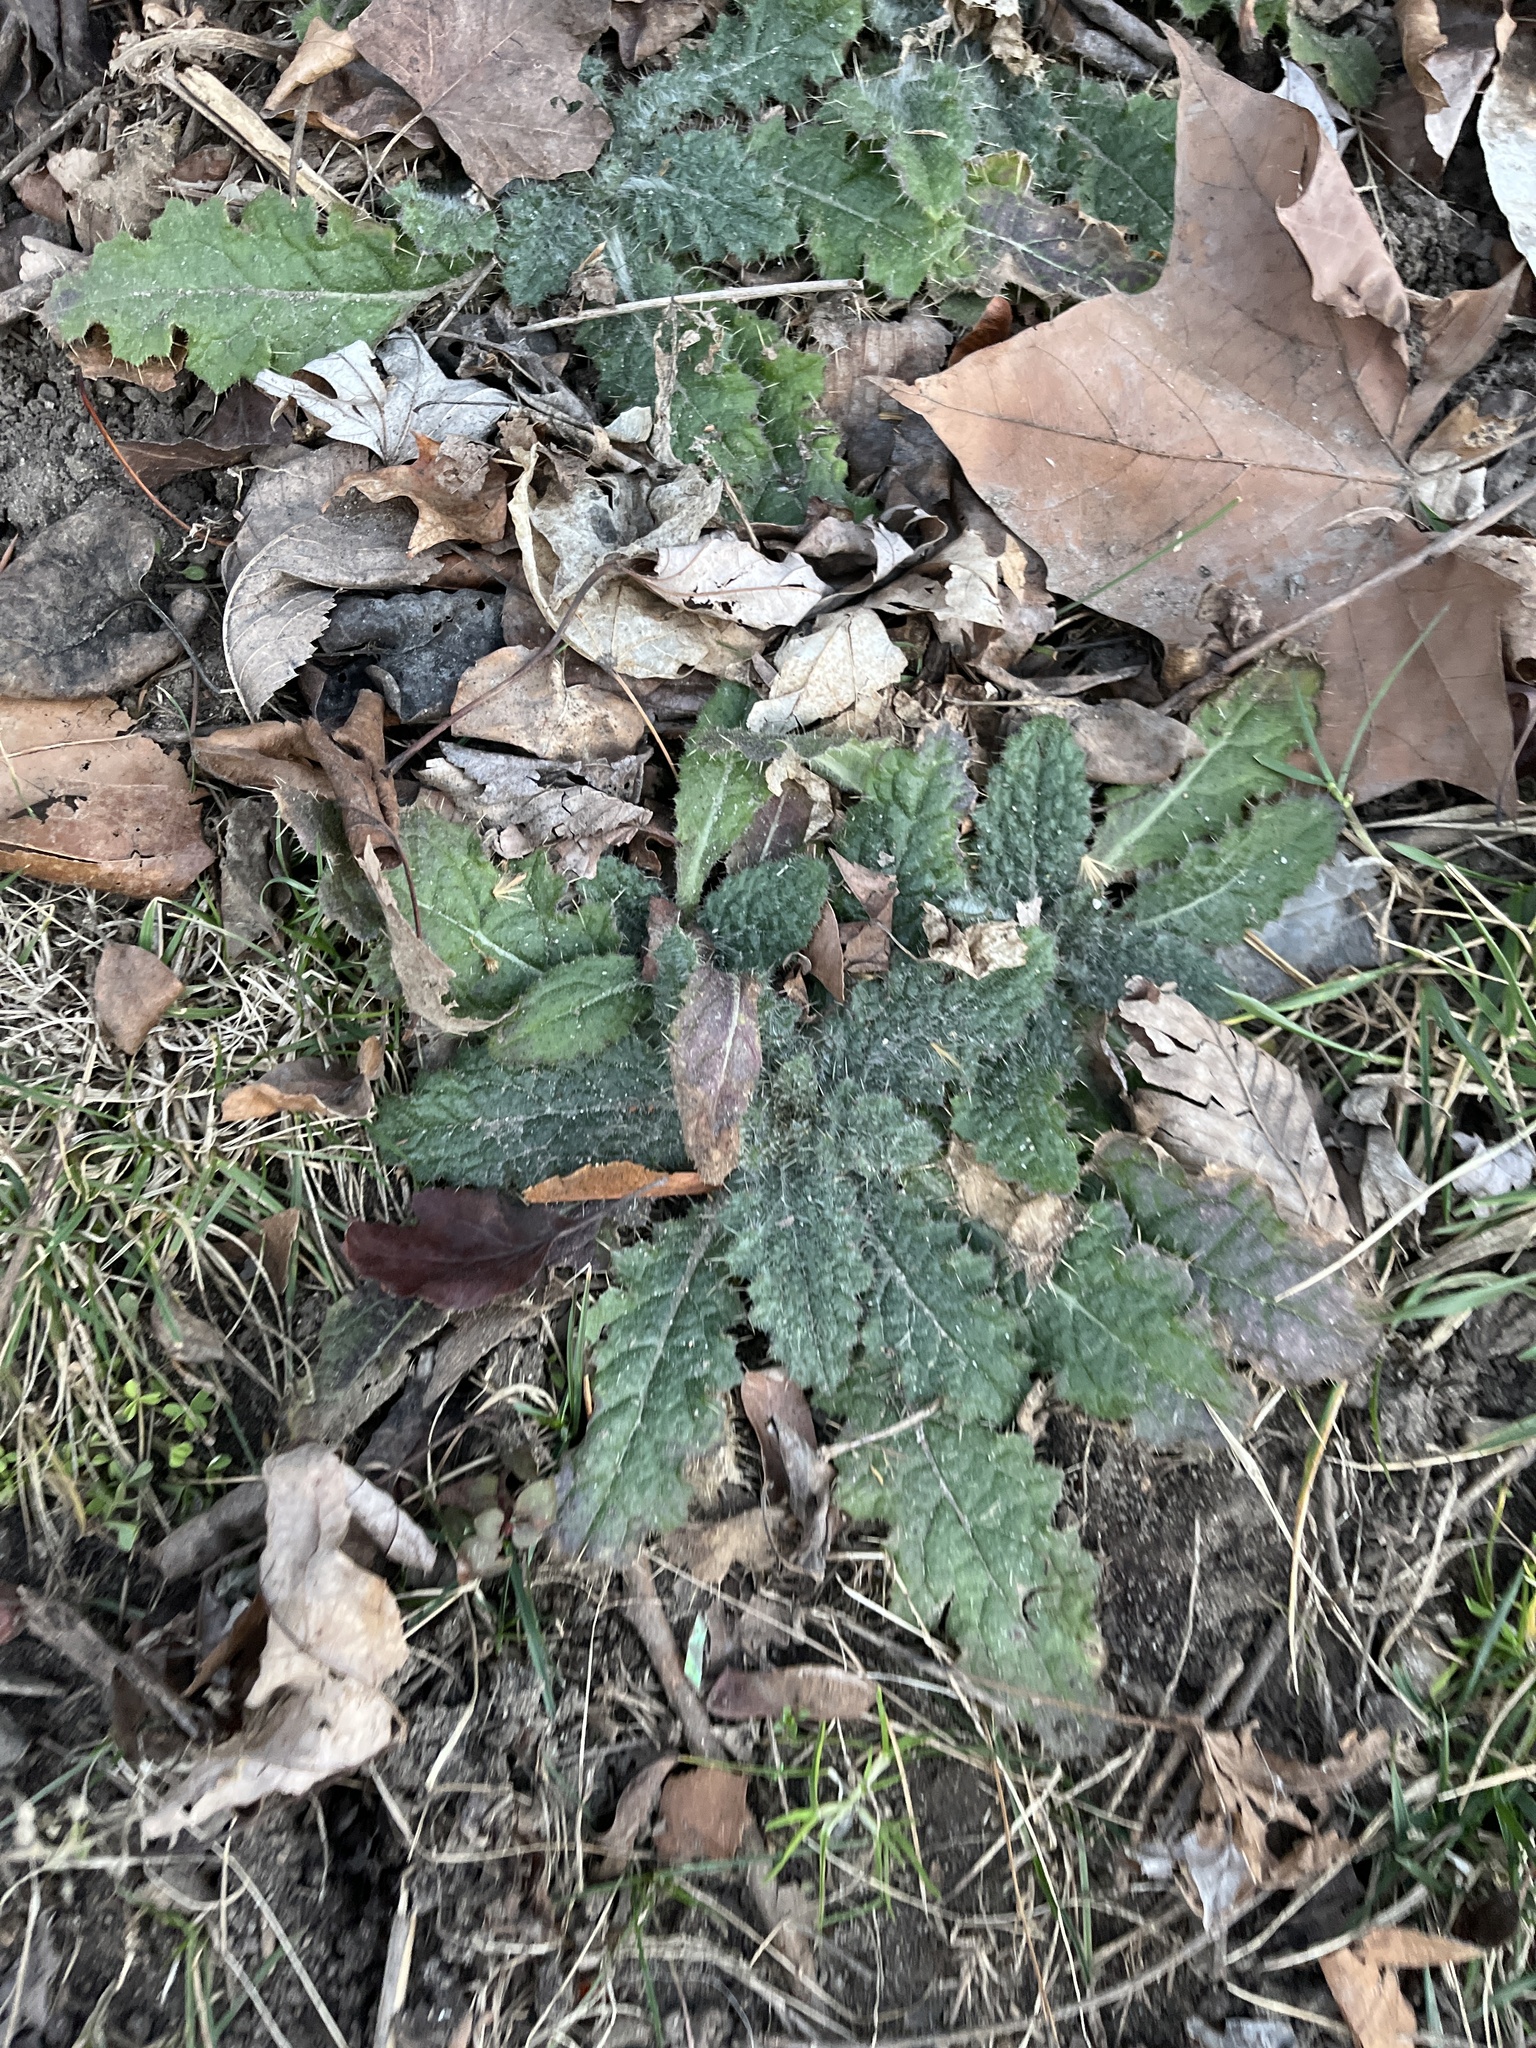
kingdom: Plantae
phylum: Tracheophyta
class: Magnoliopsida
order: Asterales
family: Asteraceae
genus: Cirsium
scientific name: Cirsium vulgare
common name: Bull thistle
